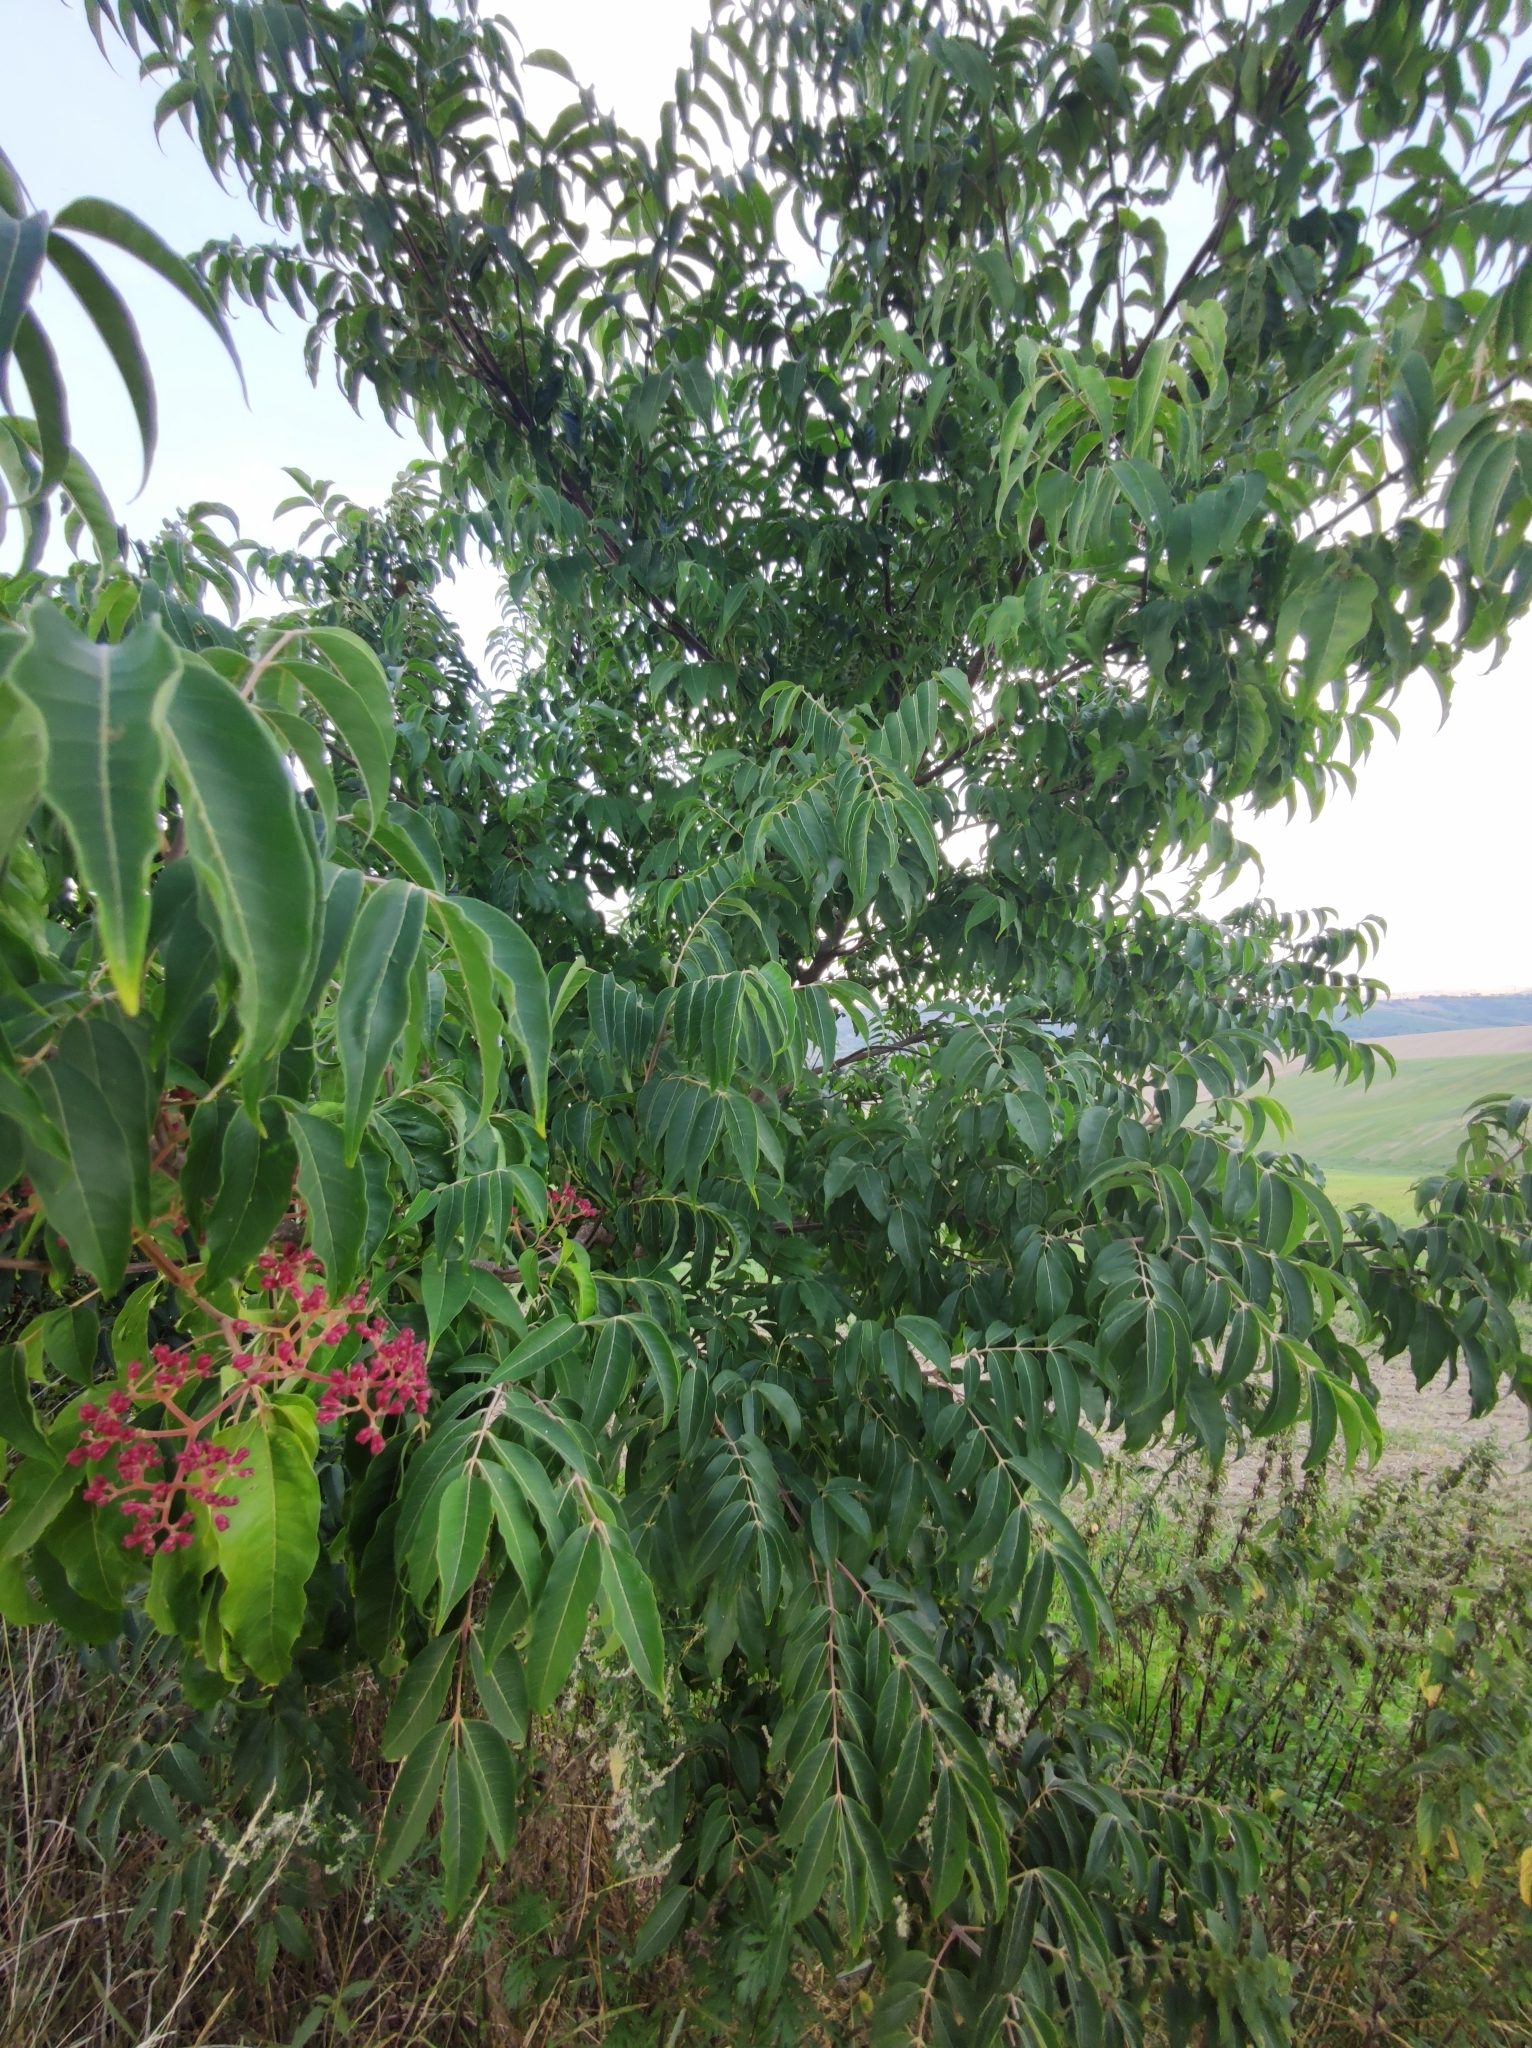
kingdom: Plantae
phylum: Tracheophyta
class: Magnoliopsida
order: Sapindales
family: Rutaceae
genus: Tetradium
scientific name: Tetradium daniellii
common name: Bee-bee tree
